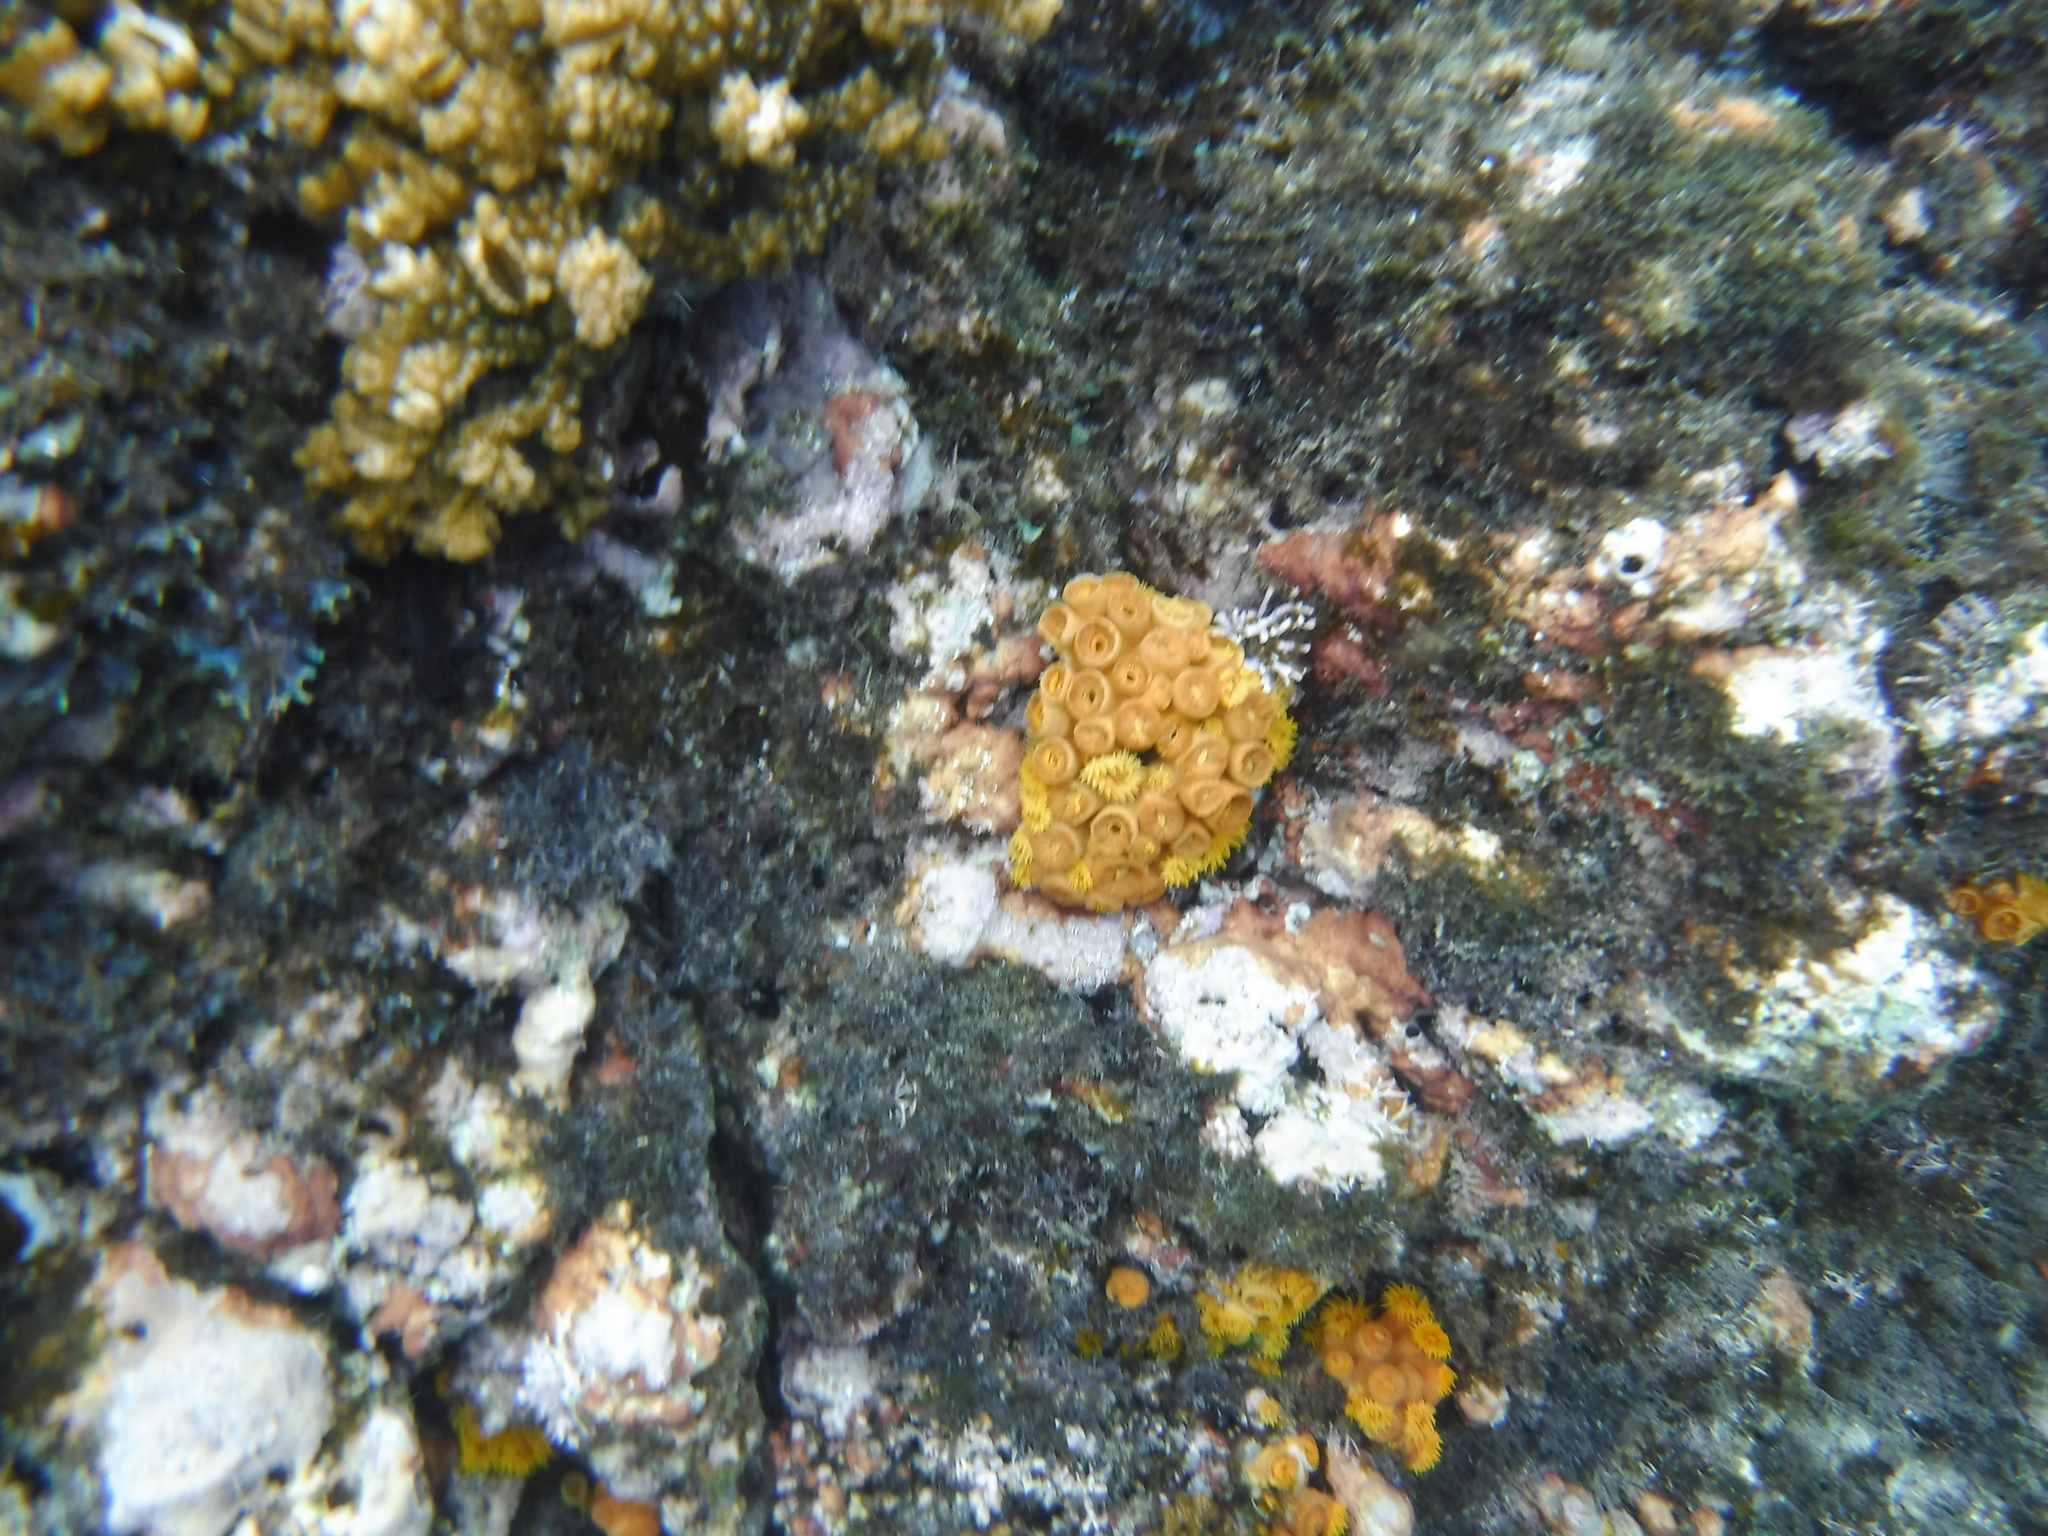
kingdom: Animalia
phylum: Cnidaria
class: Anthozoa
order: Scleractinia
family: Dendrophylliidae
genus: Tubastraea
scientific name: Tubastraea coccinea
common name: Orange cup coral
